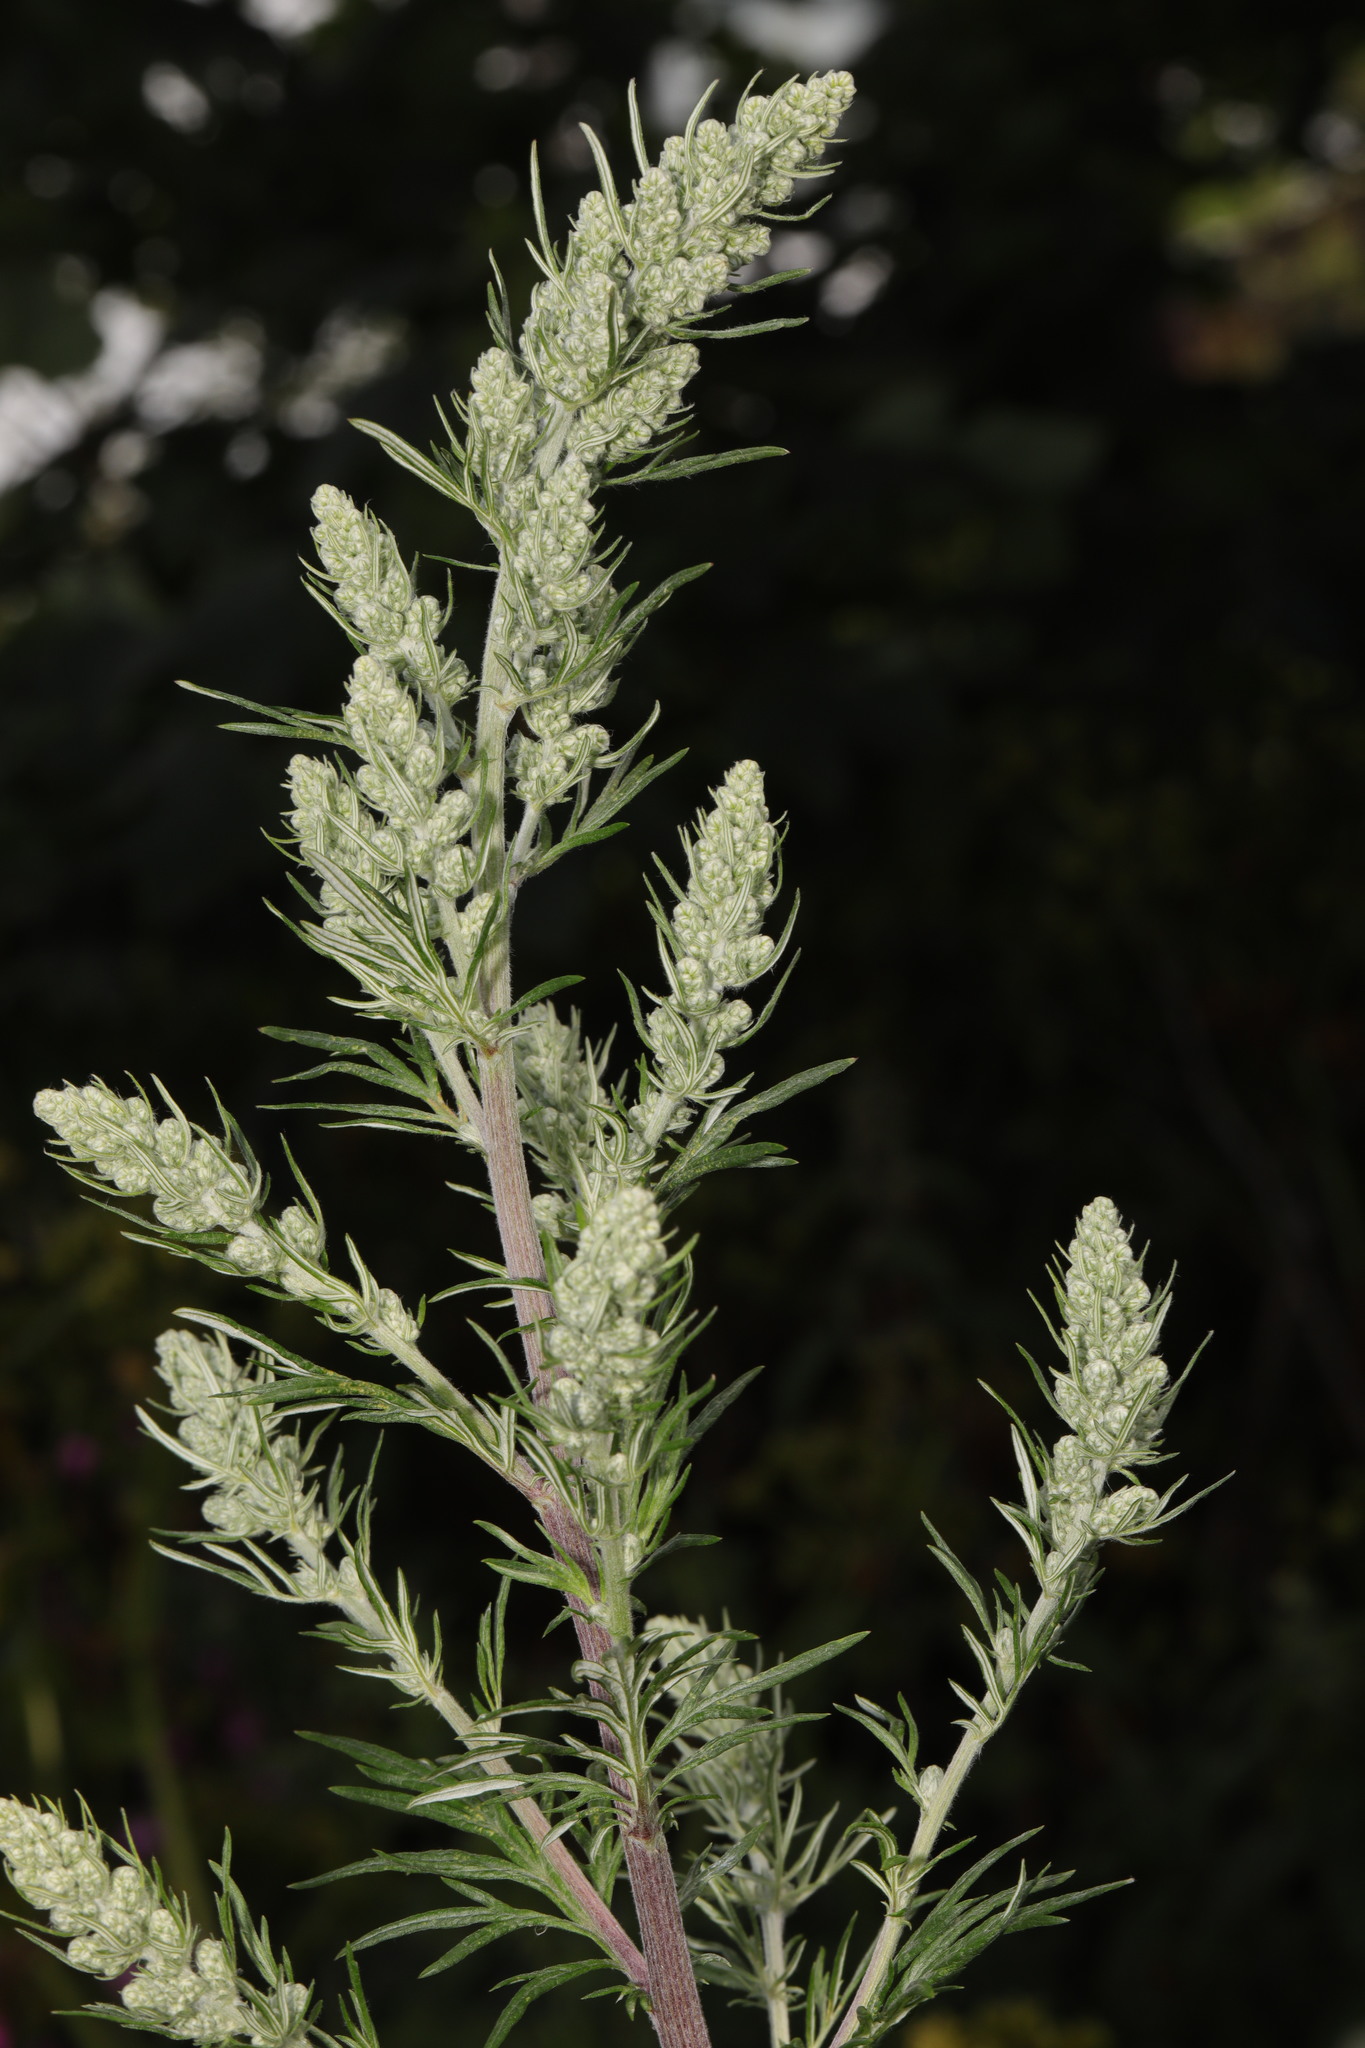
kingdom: Plantae
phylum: Tracheophyta
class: Magnoliopsida
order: Asterales
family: Asteraceae
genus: Artemisia
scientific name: Artemisia vulgaris
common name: Mugwort
